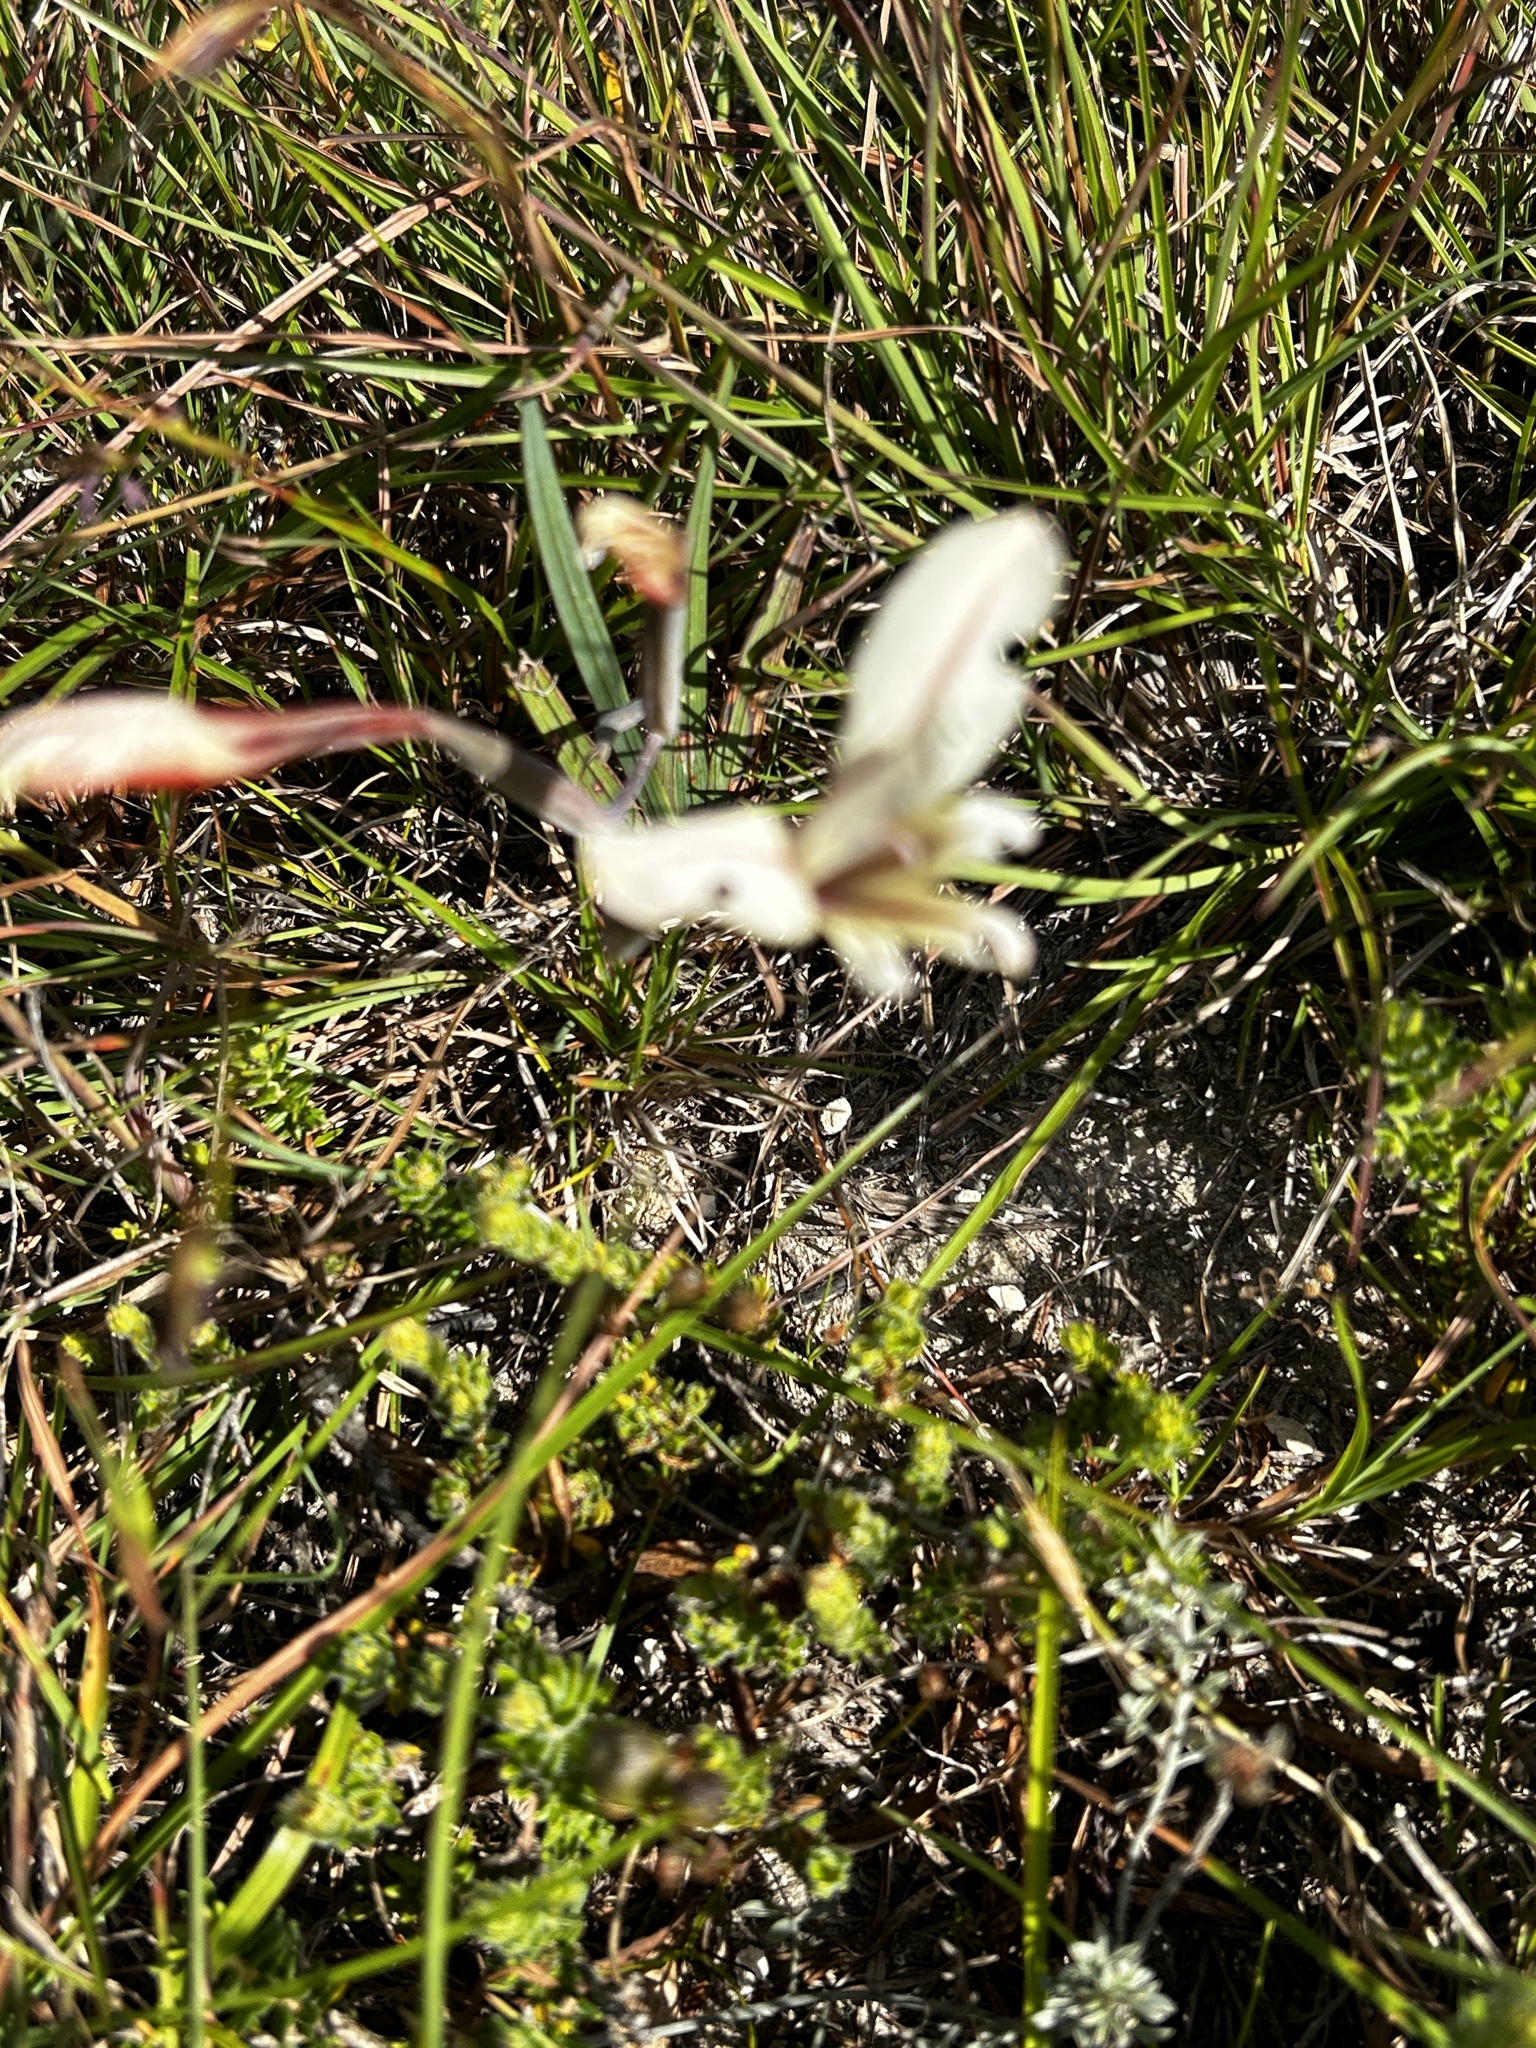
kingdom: Plantae
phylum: Tracheophyta
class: Liliopsida
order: Asparagales
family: Iridaceae
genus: Gladiolus
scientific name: Gladiolus floribundus
